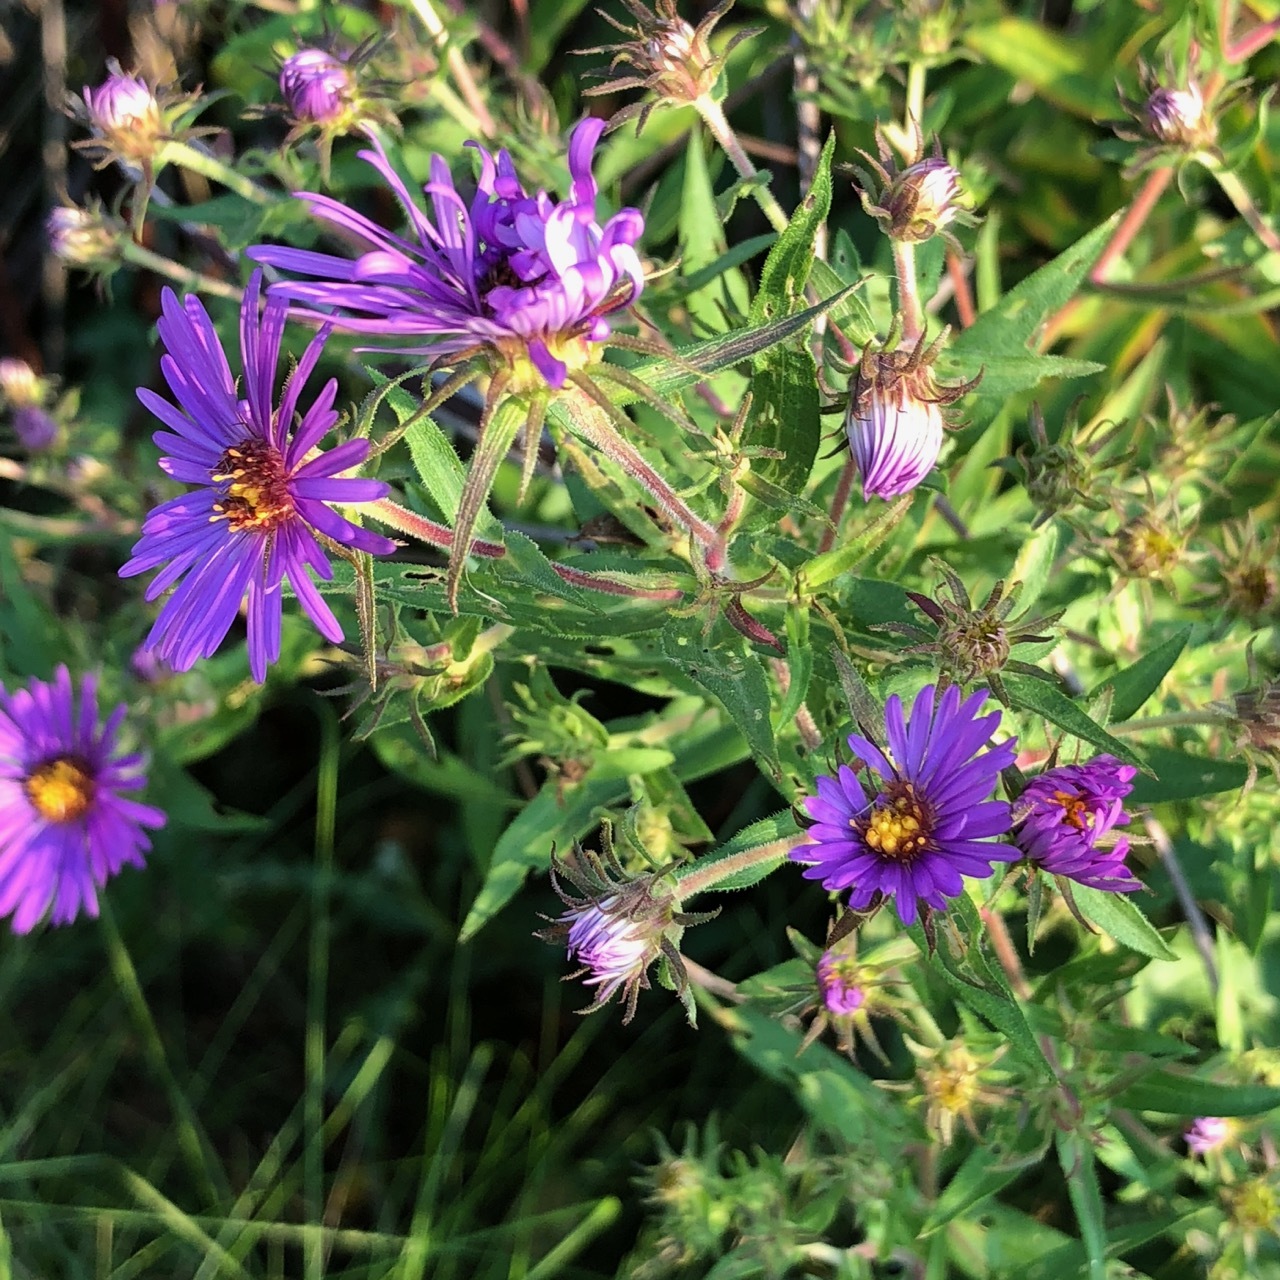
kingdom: Plantae
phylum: Tracheophyta
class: Magnoliopsida
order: Asterales
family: Asteraceae
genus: Symphyotrichum
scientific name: Symphyotrichum novae-angliae
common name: Michaelmas daisy
